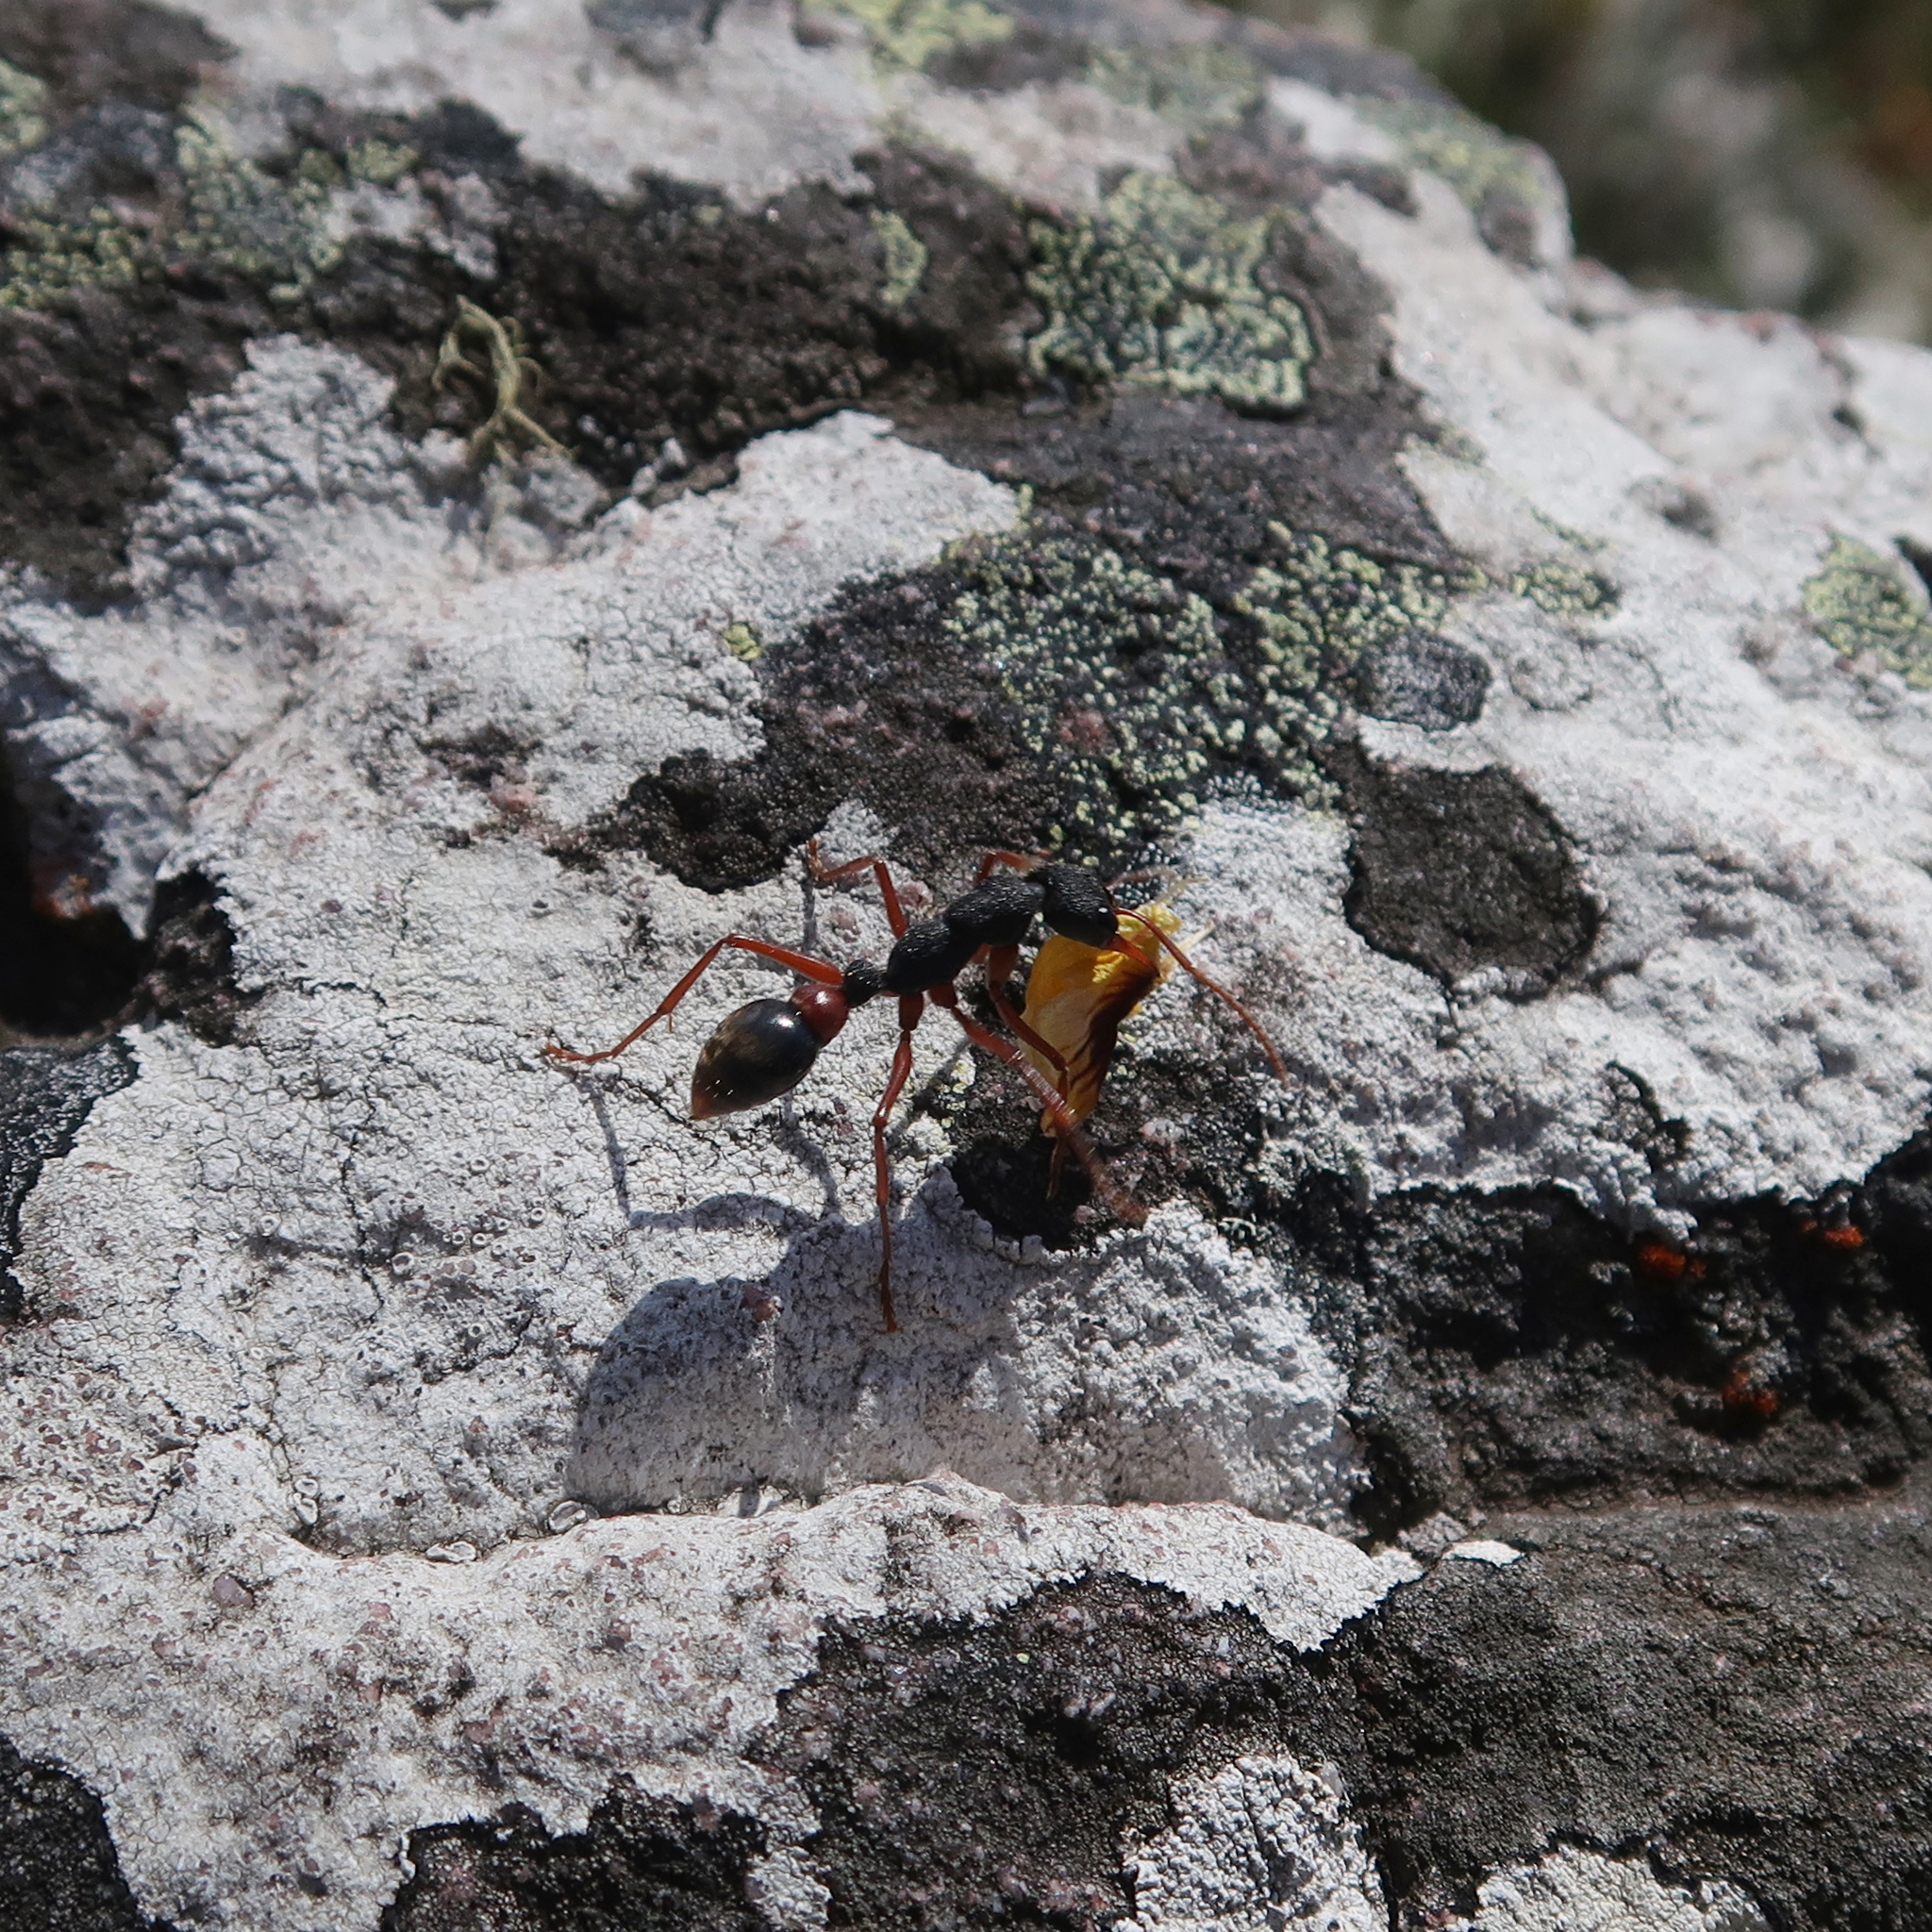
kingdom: Animalia
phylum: Arthropoda
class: Insecta
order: Hymenoptera
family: Formicidae
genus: Myrmecia
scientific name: Myrmecia esuriens
